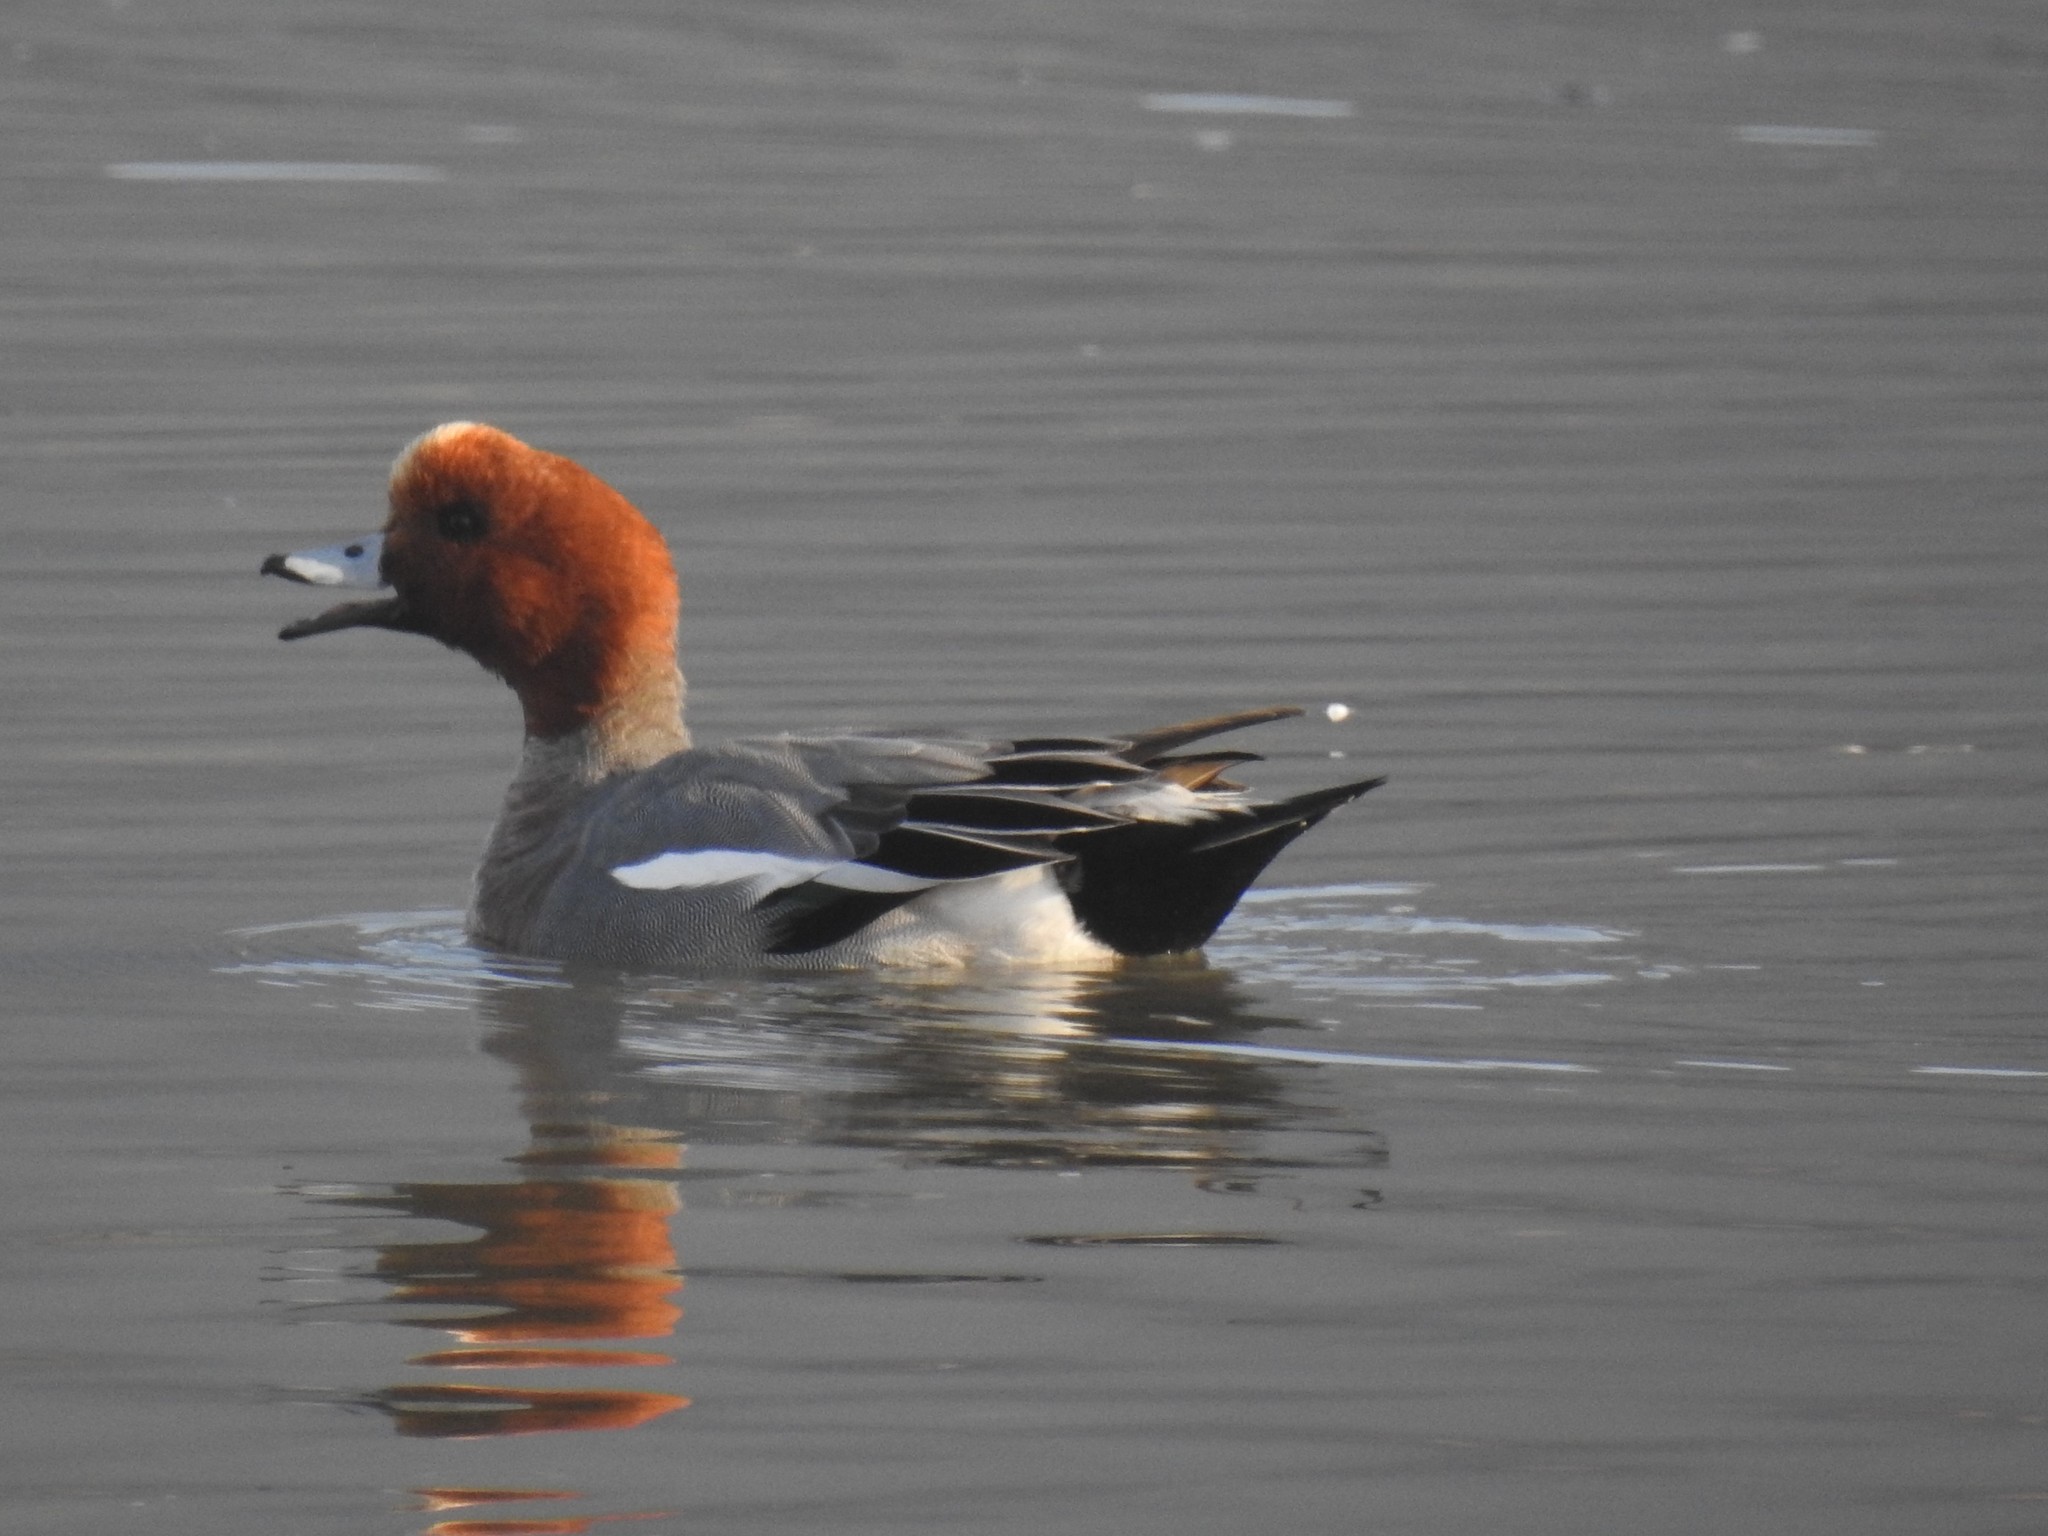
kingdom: Animalia
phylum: Chordata
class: Aves
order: Anseriformes
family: Anatidae
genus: Mareca
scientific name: Mareca penelope
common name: Eurasian wigeon
